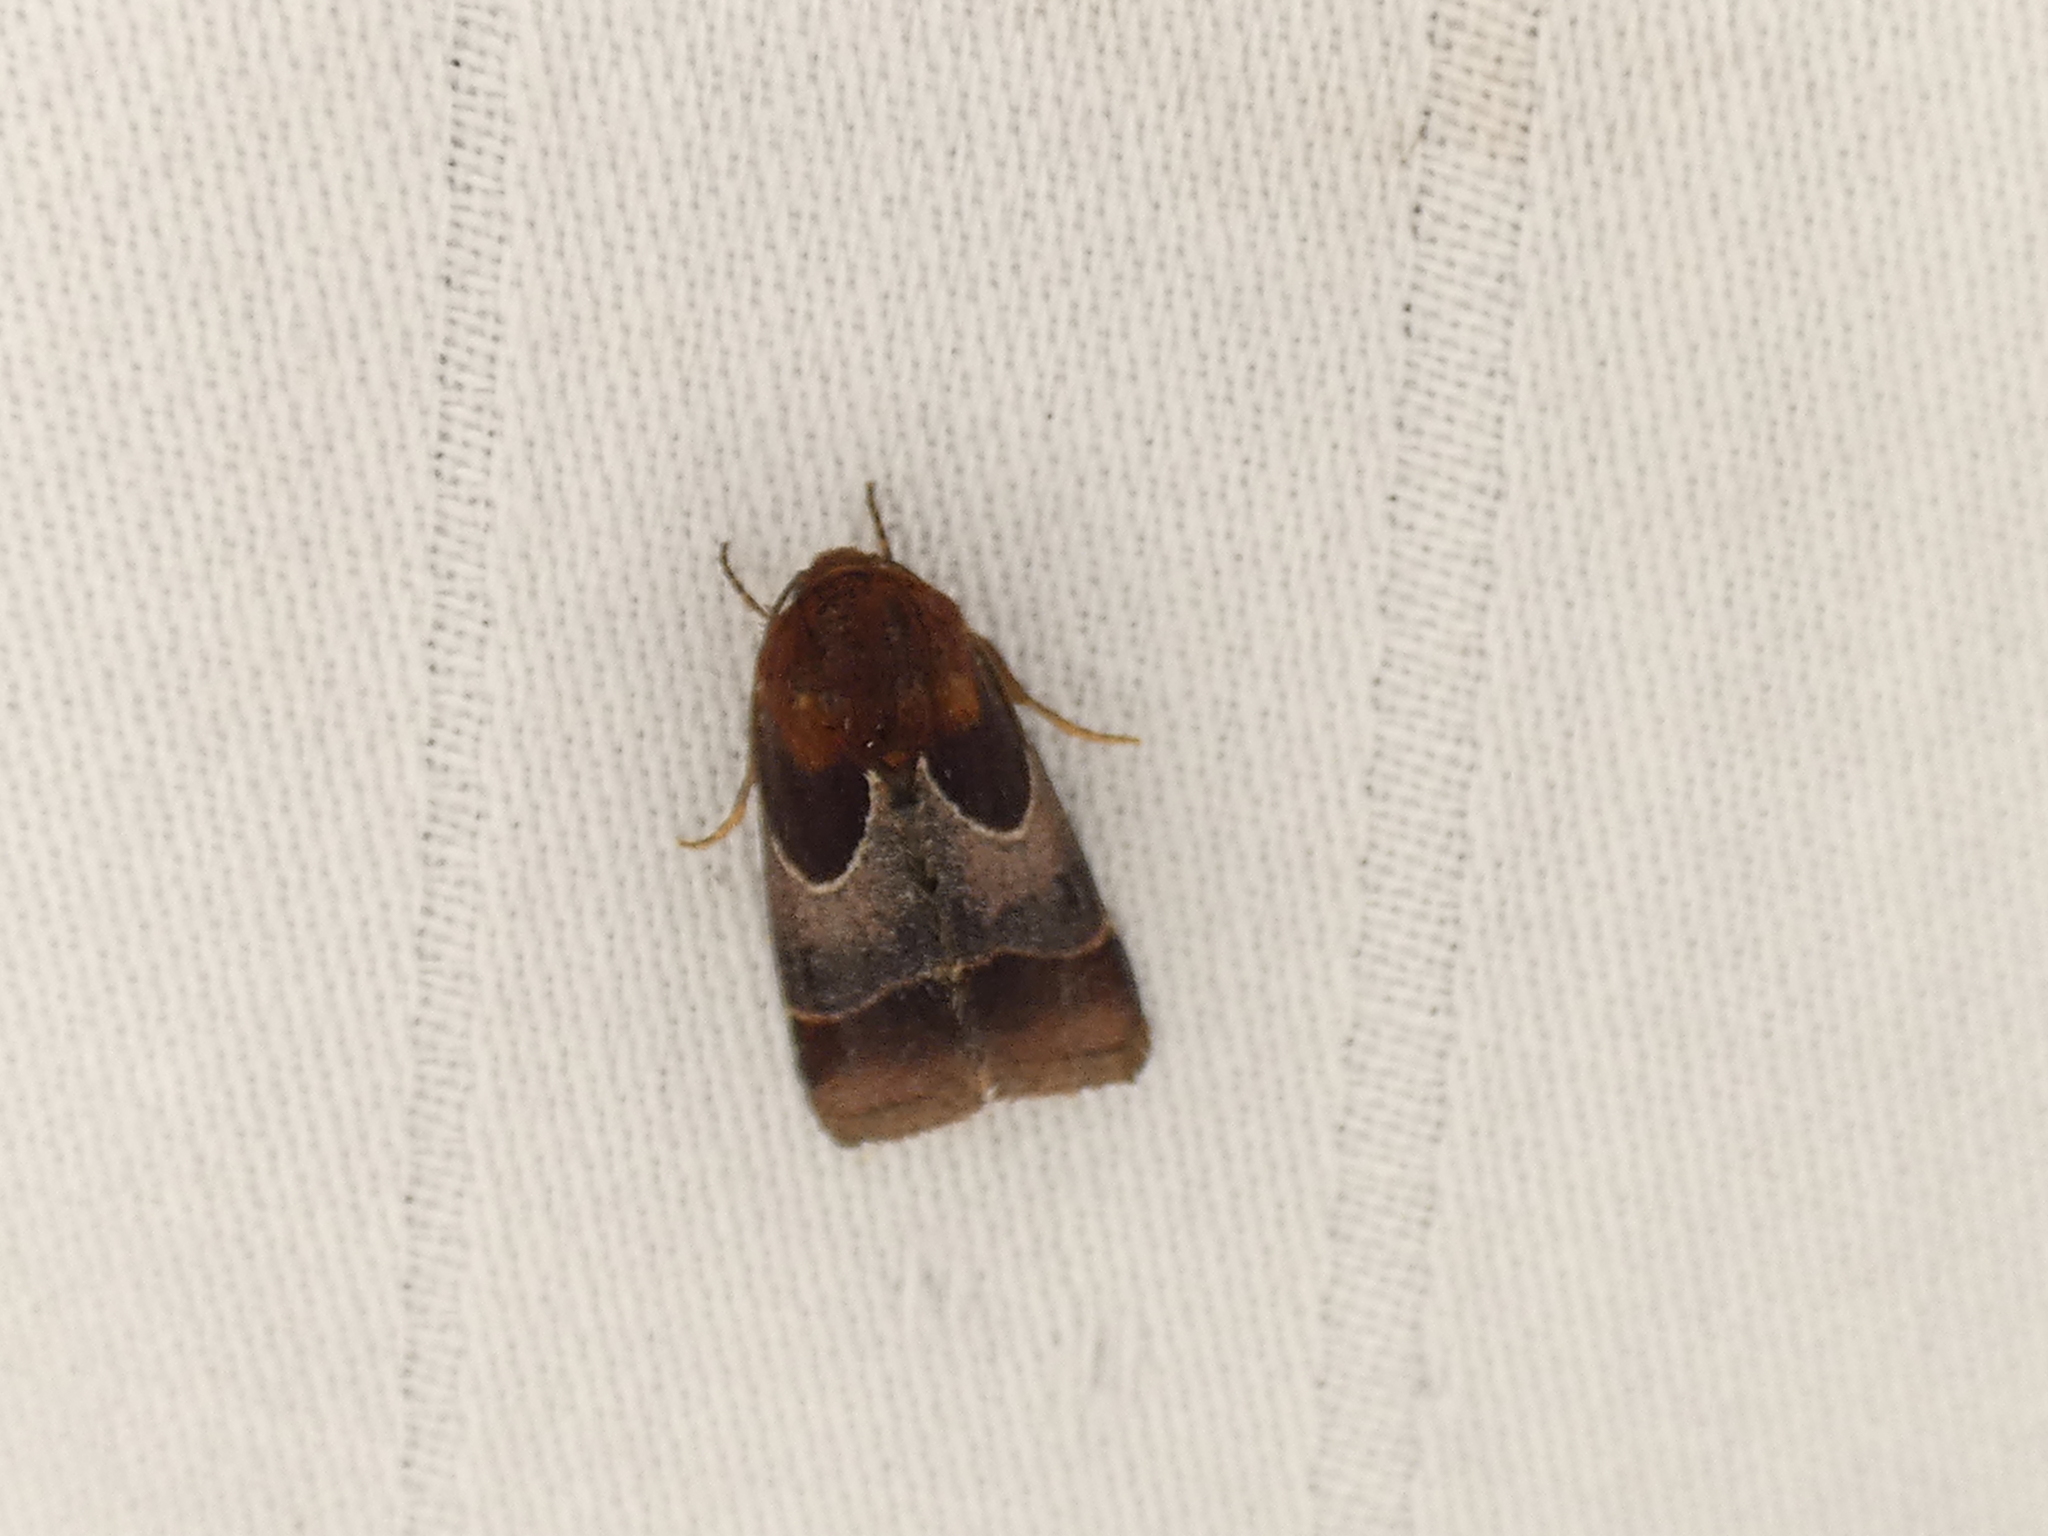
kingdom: Animalia
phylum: Arthropoda
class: Insecta
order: Lepidoptera
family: Noctuidae
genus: Schinia
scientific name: Schinia arcigera
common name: Arcigera flower moth
